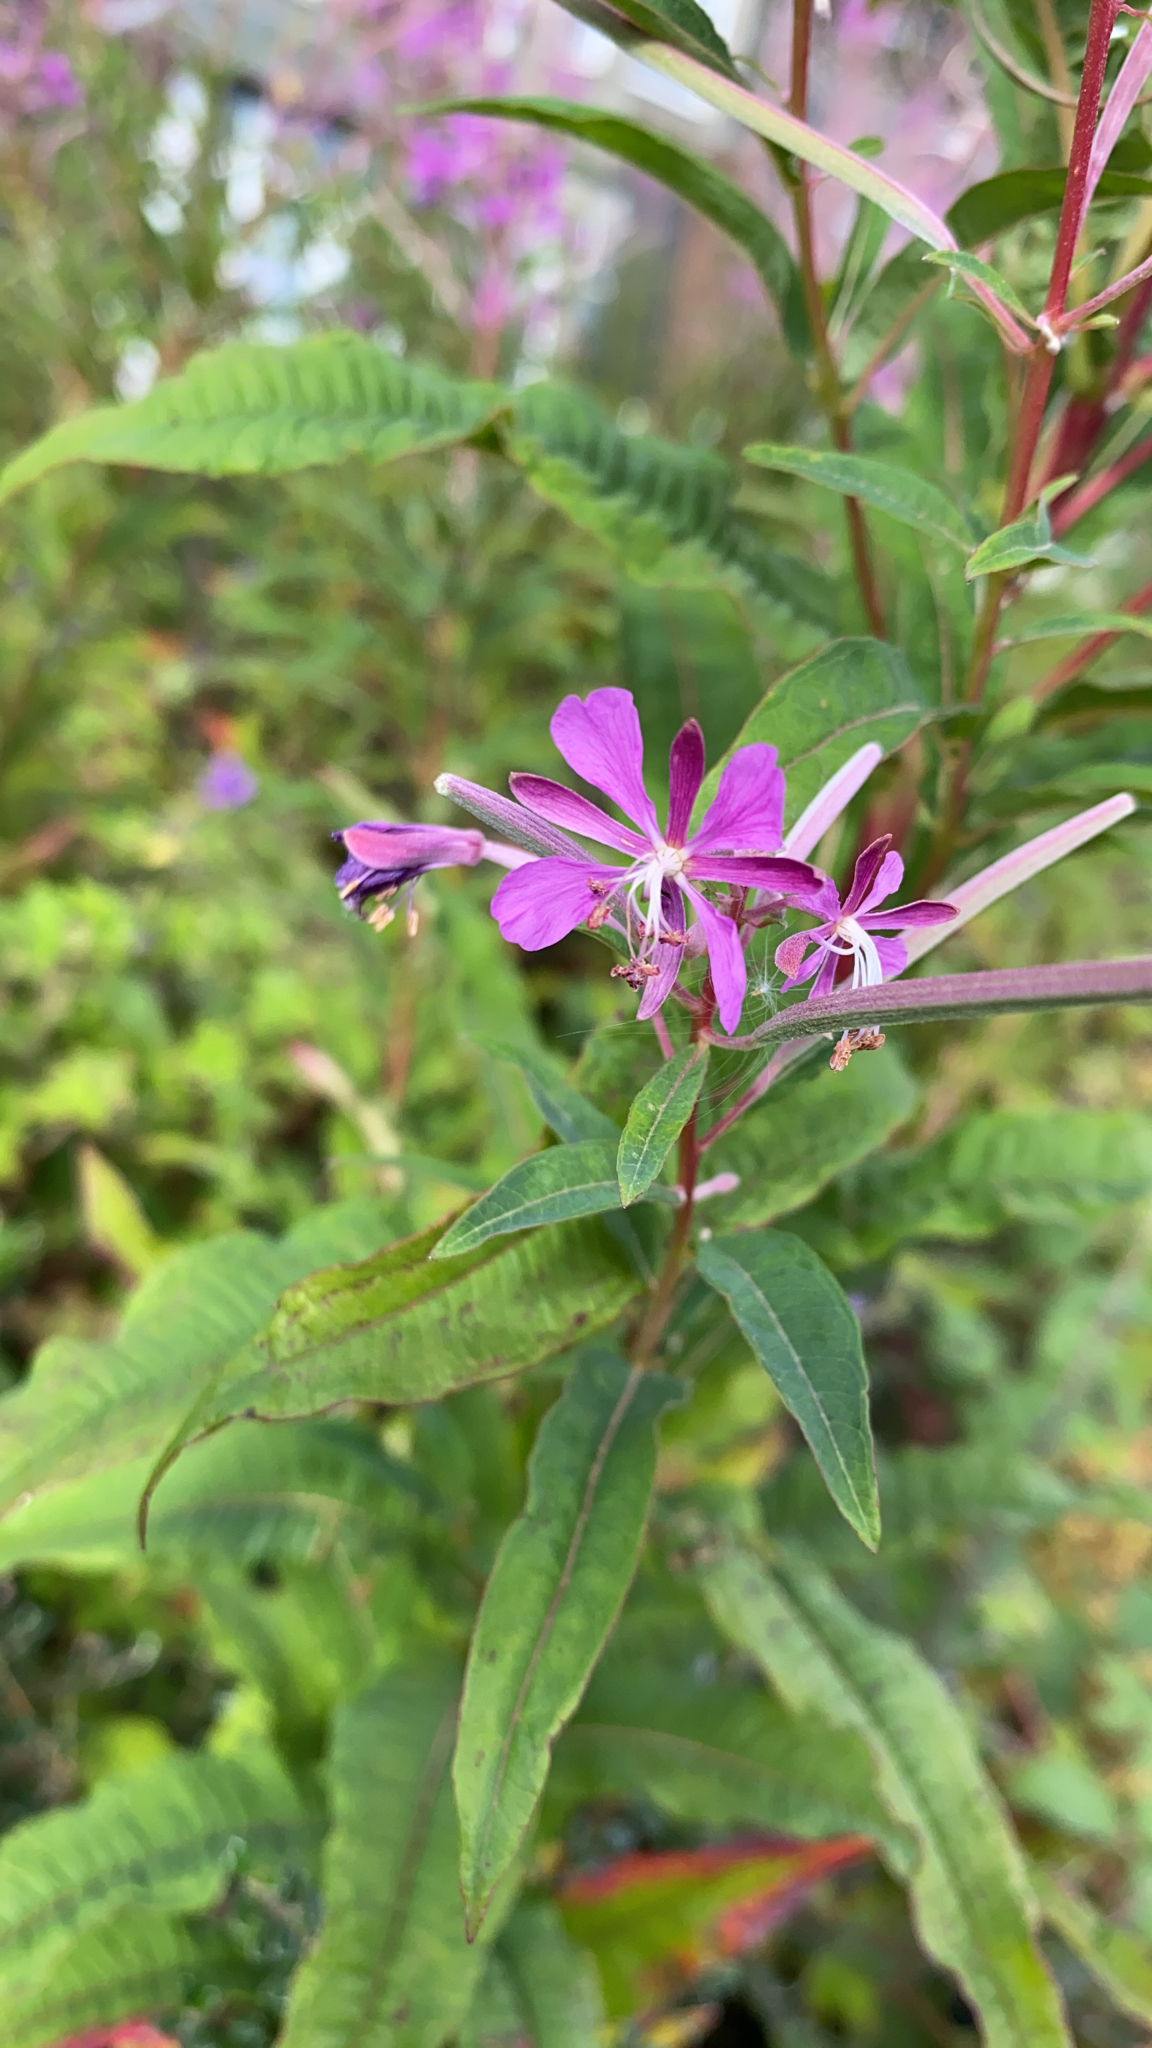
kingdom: Plantae
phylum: Tracheophyta
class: Magnoliopsida
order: Myrtales
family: Onagraceae
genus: Chamaenerion
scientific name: Chamaenerion angustifolium
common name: Fireweed
